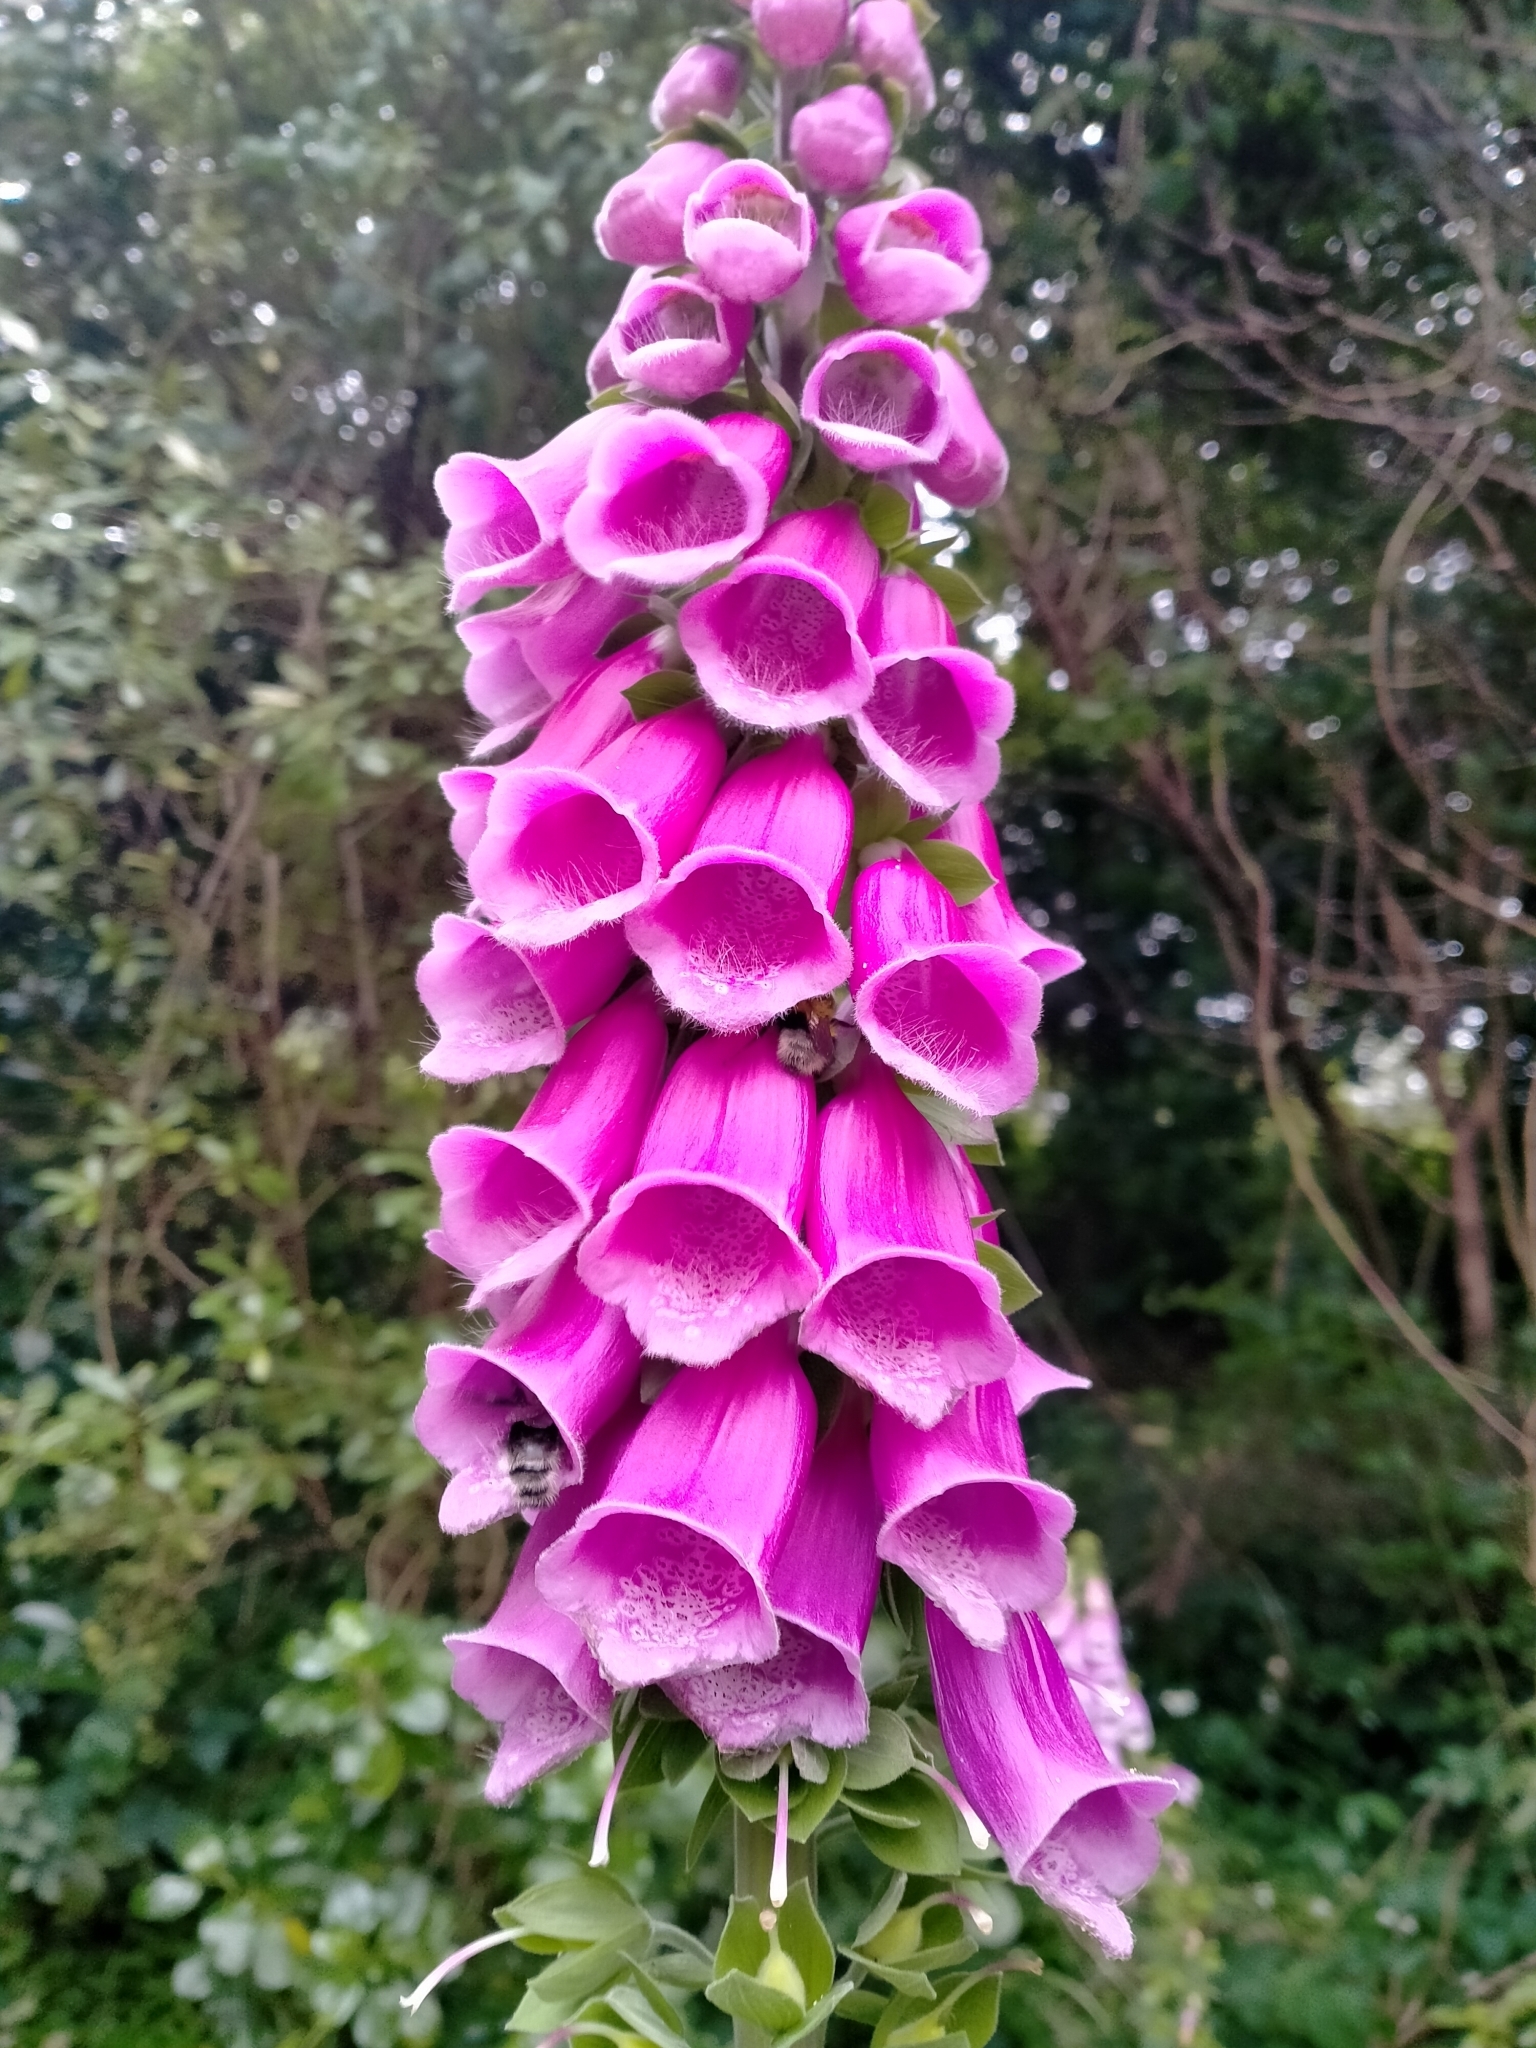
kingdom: Plantae
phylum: Tracheophyta
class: Magnoliopsida
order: Lamiales
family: Plantaginaceae
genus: Digitalis
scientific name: Digitalis purpurea
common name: Foxglove
